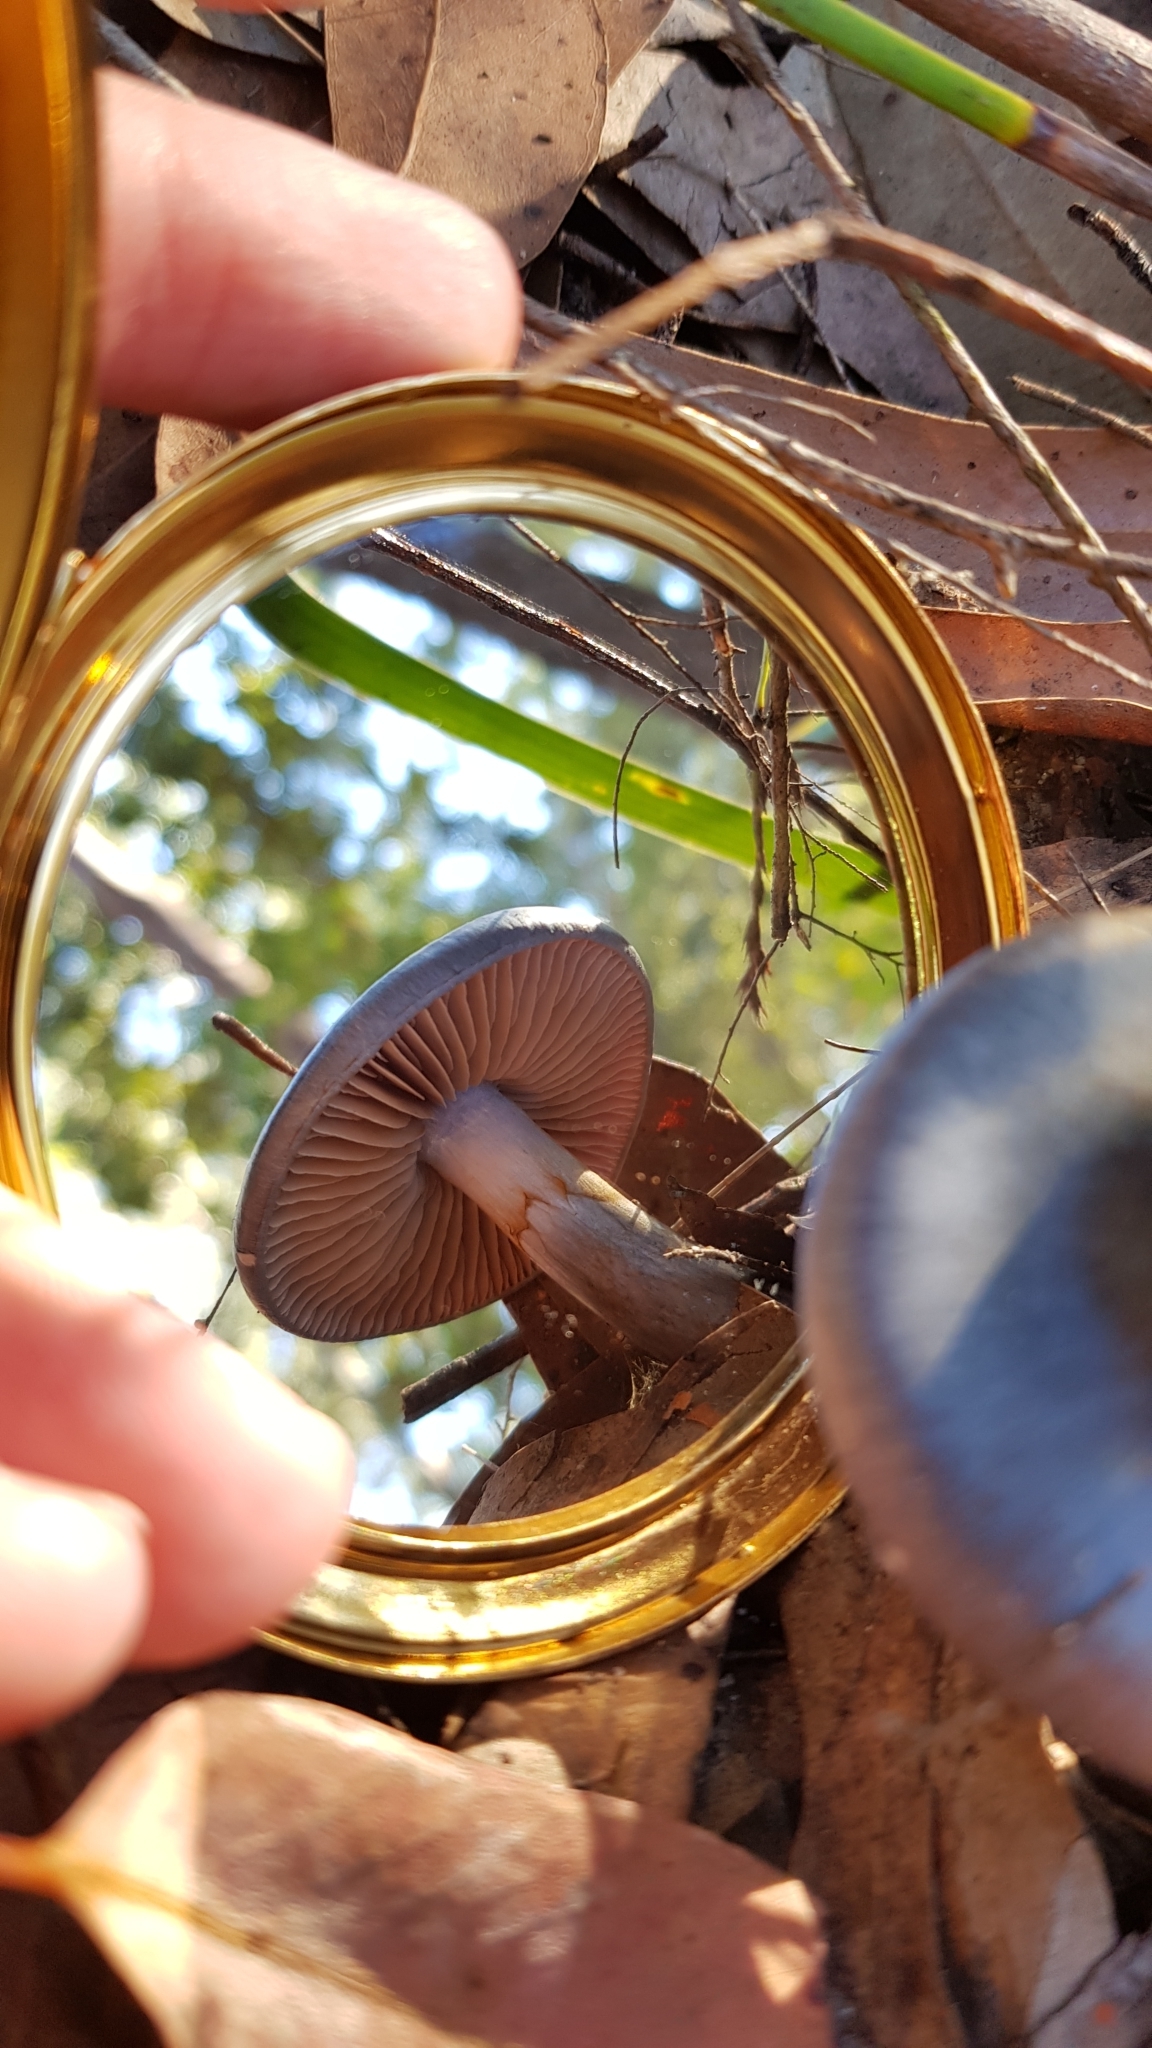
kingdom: Fungi
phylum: Basidiomycota
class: Agaricomycetes
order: Agaricales
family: Cortinariaceae
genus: Cortinarius
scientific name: Cortinarius rotundisporus
